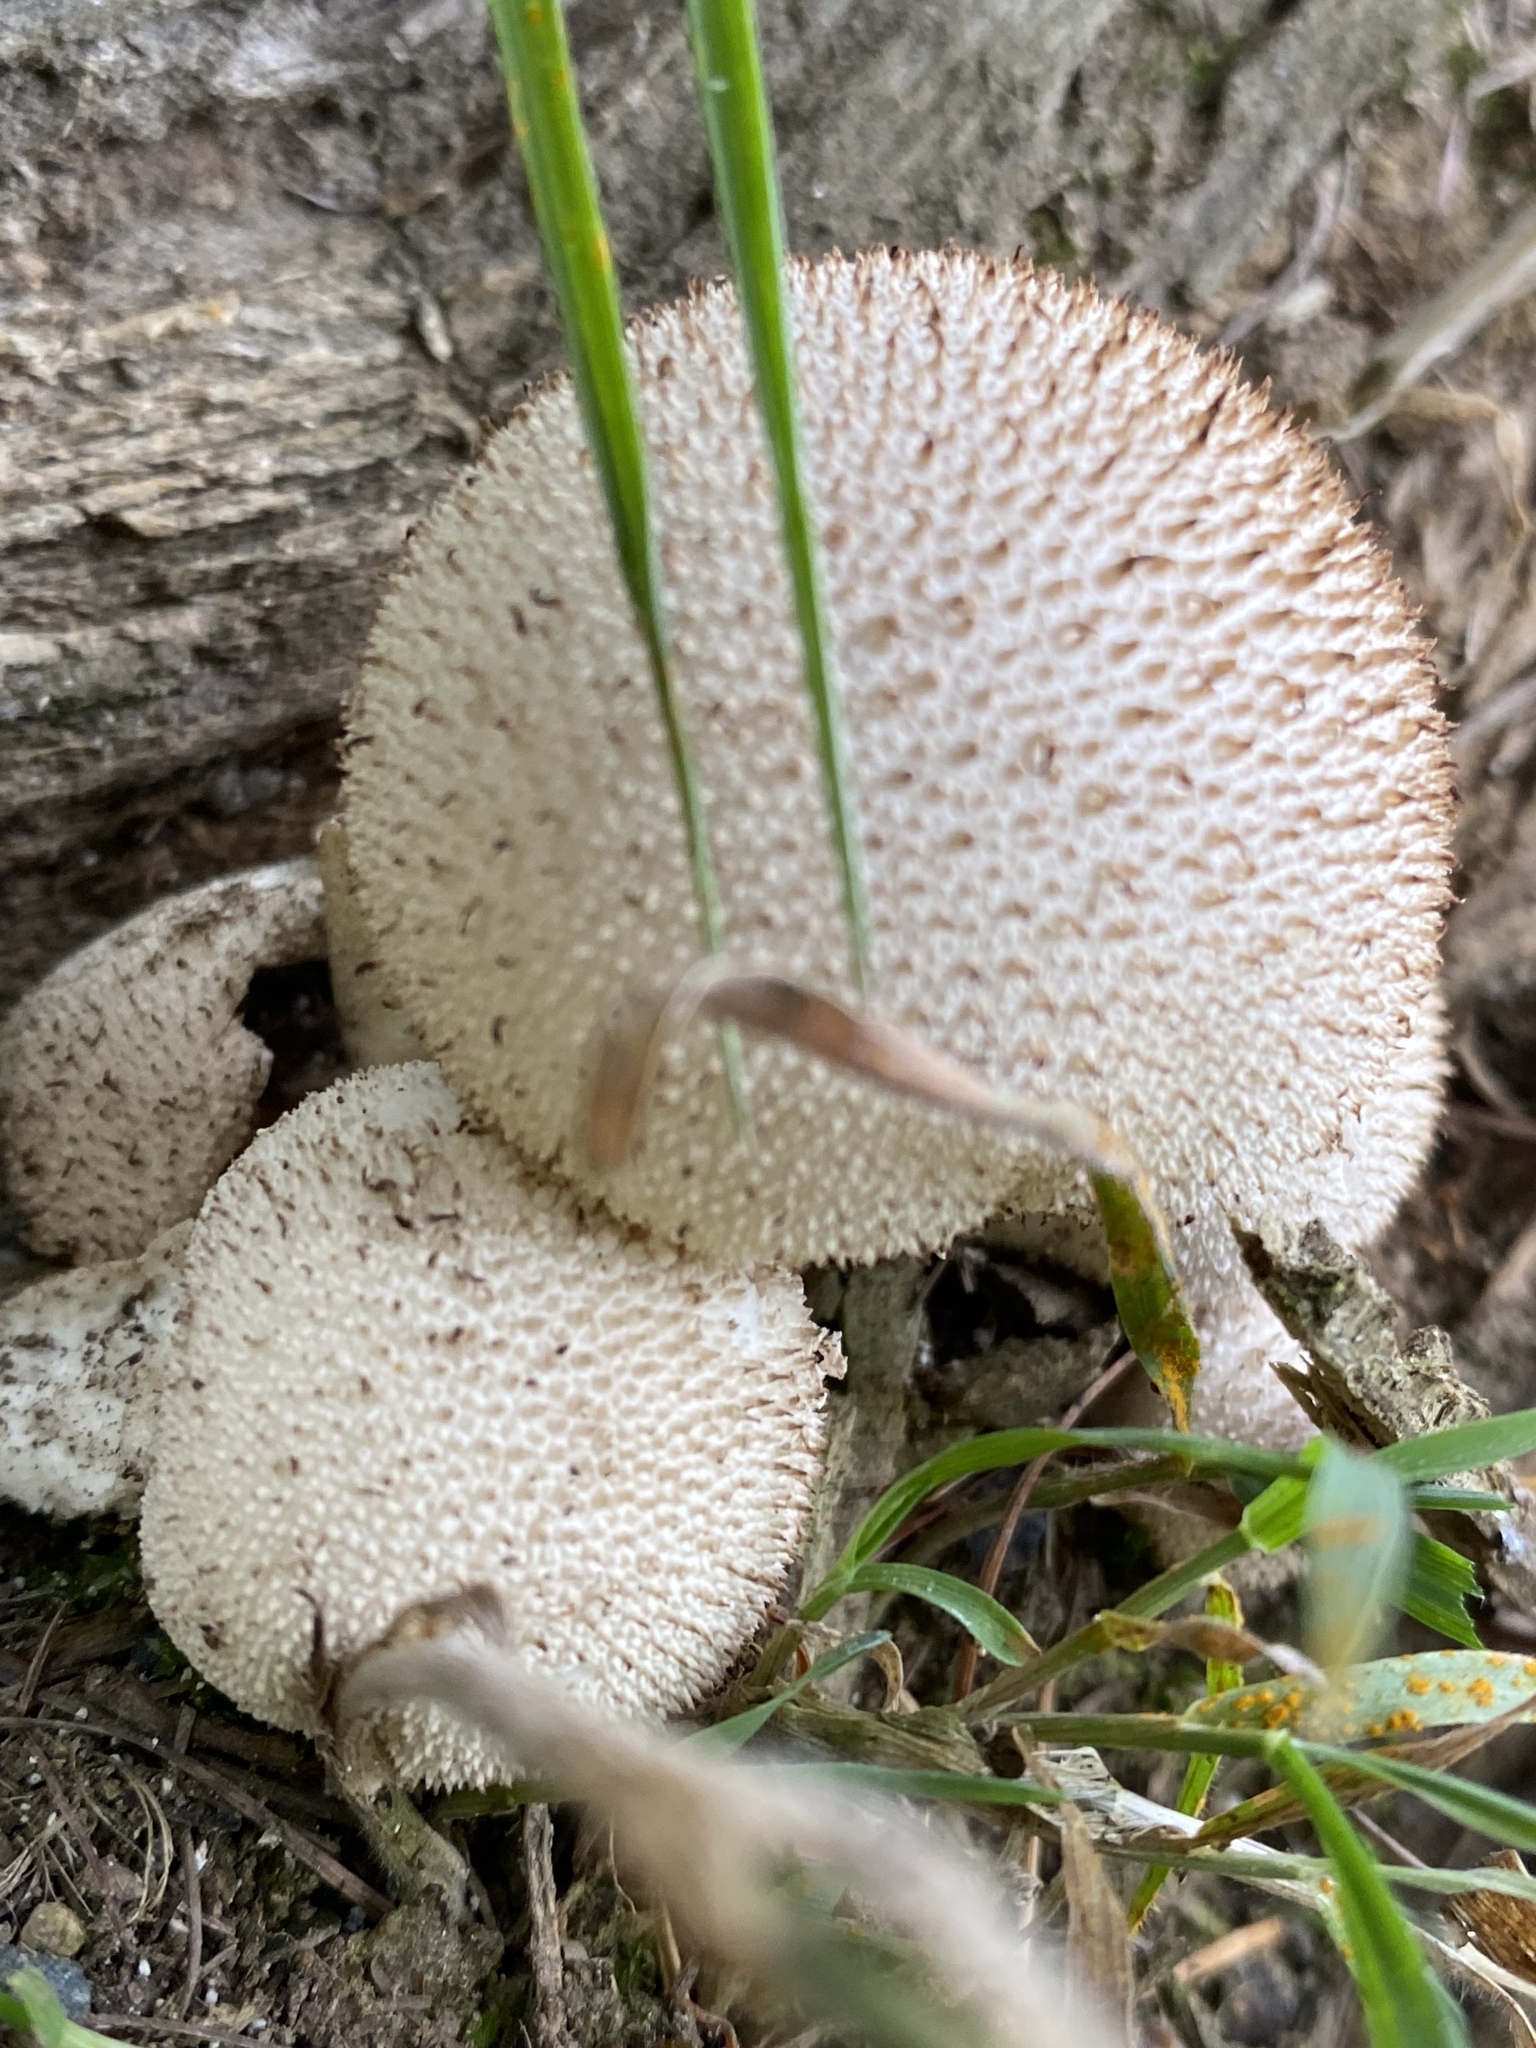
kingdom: Fungi
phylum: Basidiomycota
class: Agaricomycetes
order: Agaricales
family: Lycoperdaceae
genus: Lycoperdon
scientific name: Lycoperdon perlatum
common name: Common puffball
